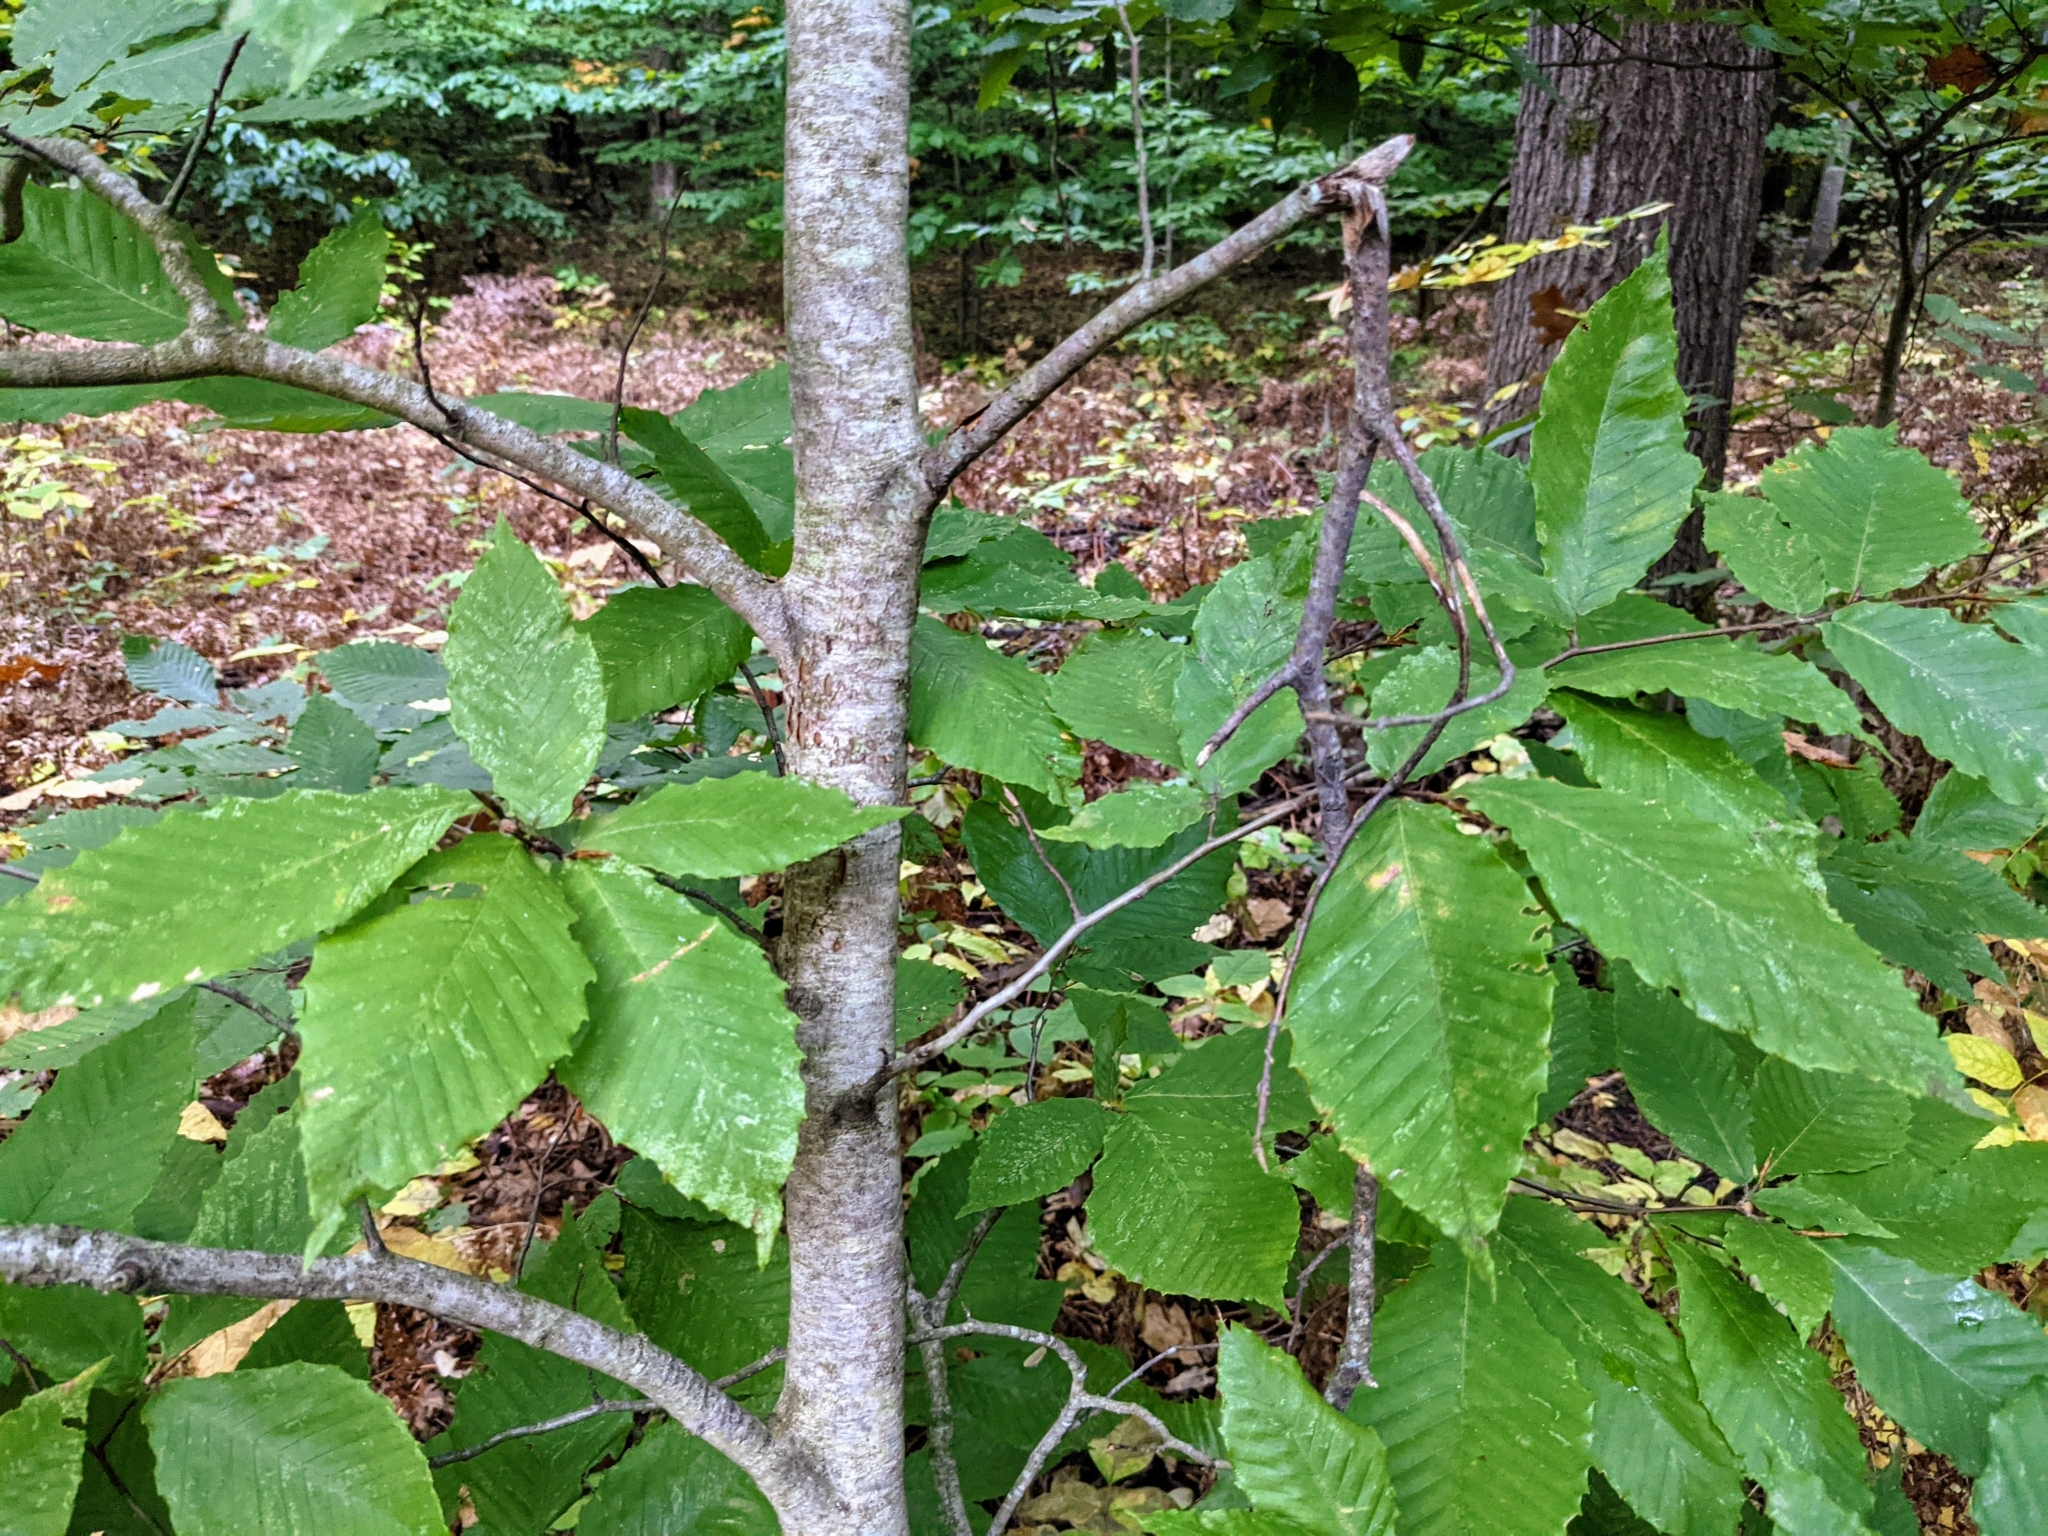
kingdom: Plantae
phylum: Tracheophyta
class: Magnoliopsida
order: Fagales
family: Fagaceae
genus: Fagus
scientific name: Fagus grandifolia
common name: American beech
